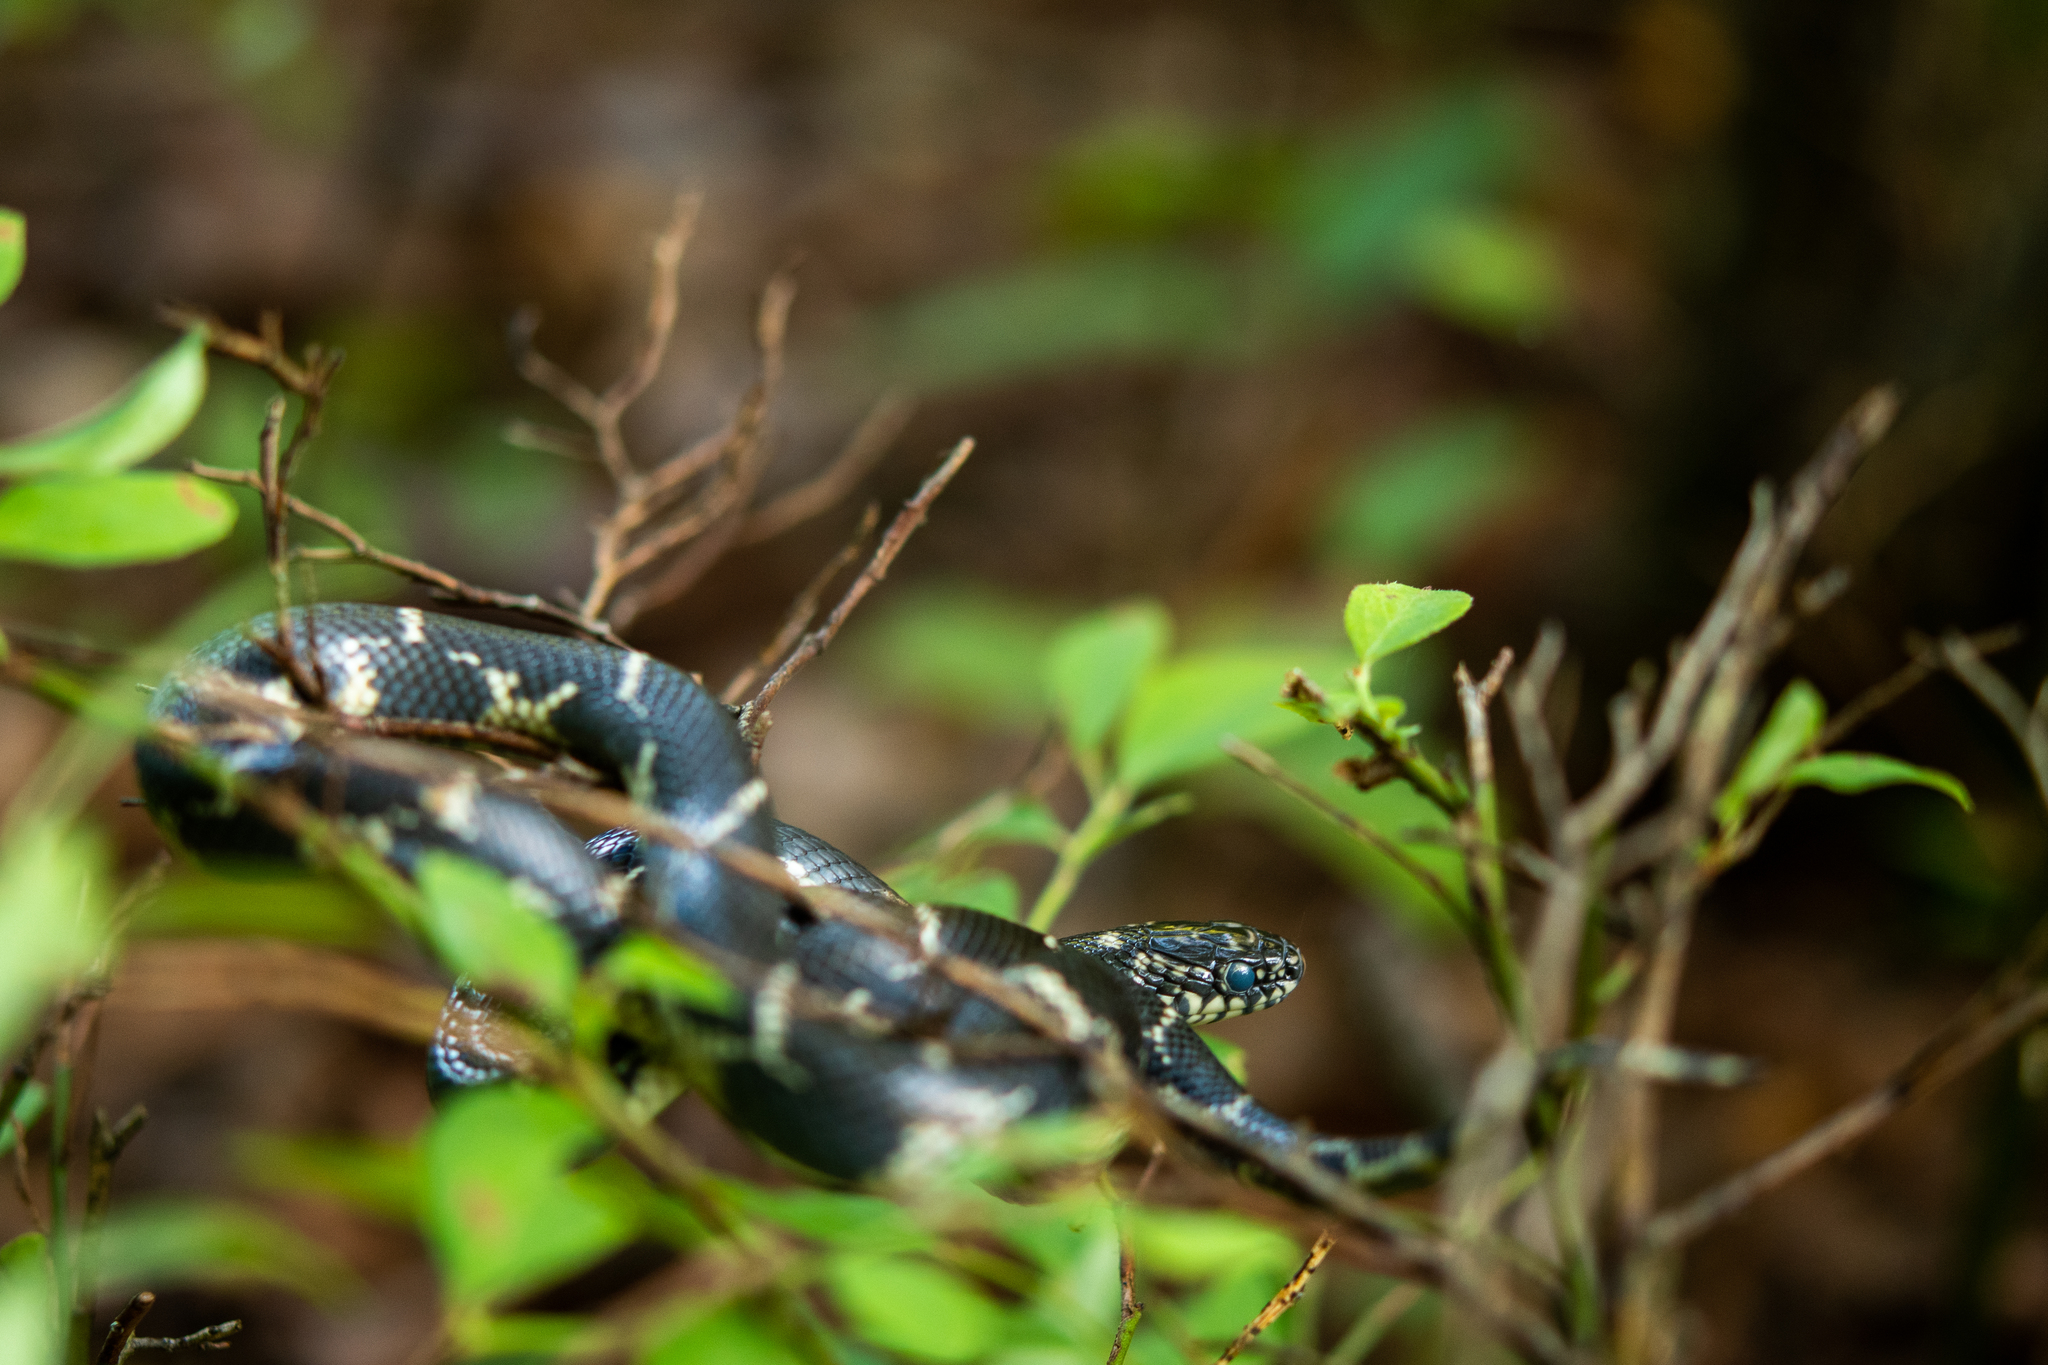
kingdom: Animalia
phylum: Chordata
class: Squamata
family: Colubridae
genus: Lampropeltis
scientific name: Lampropeltis getula
